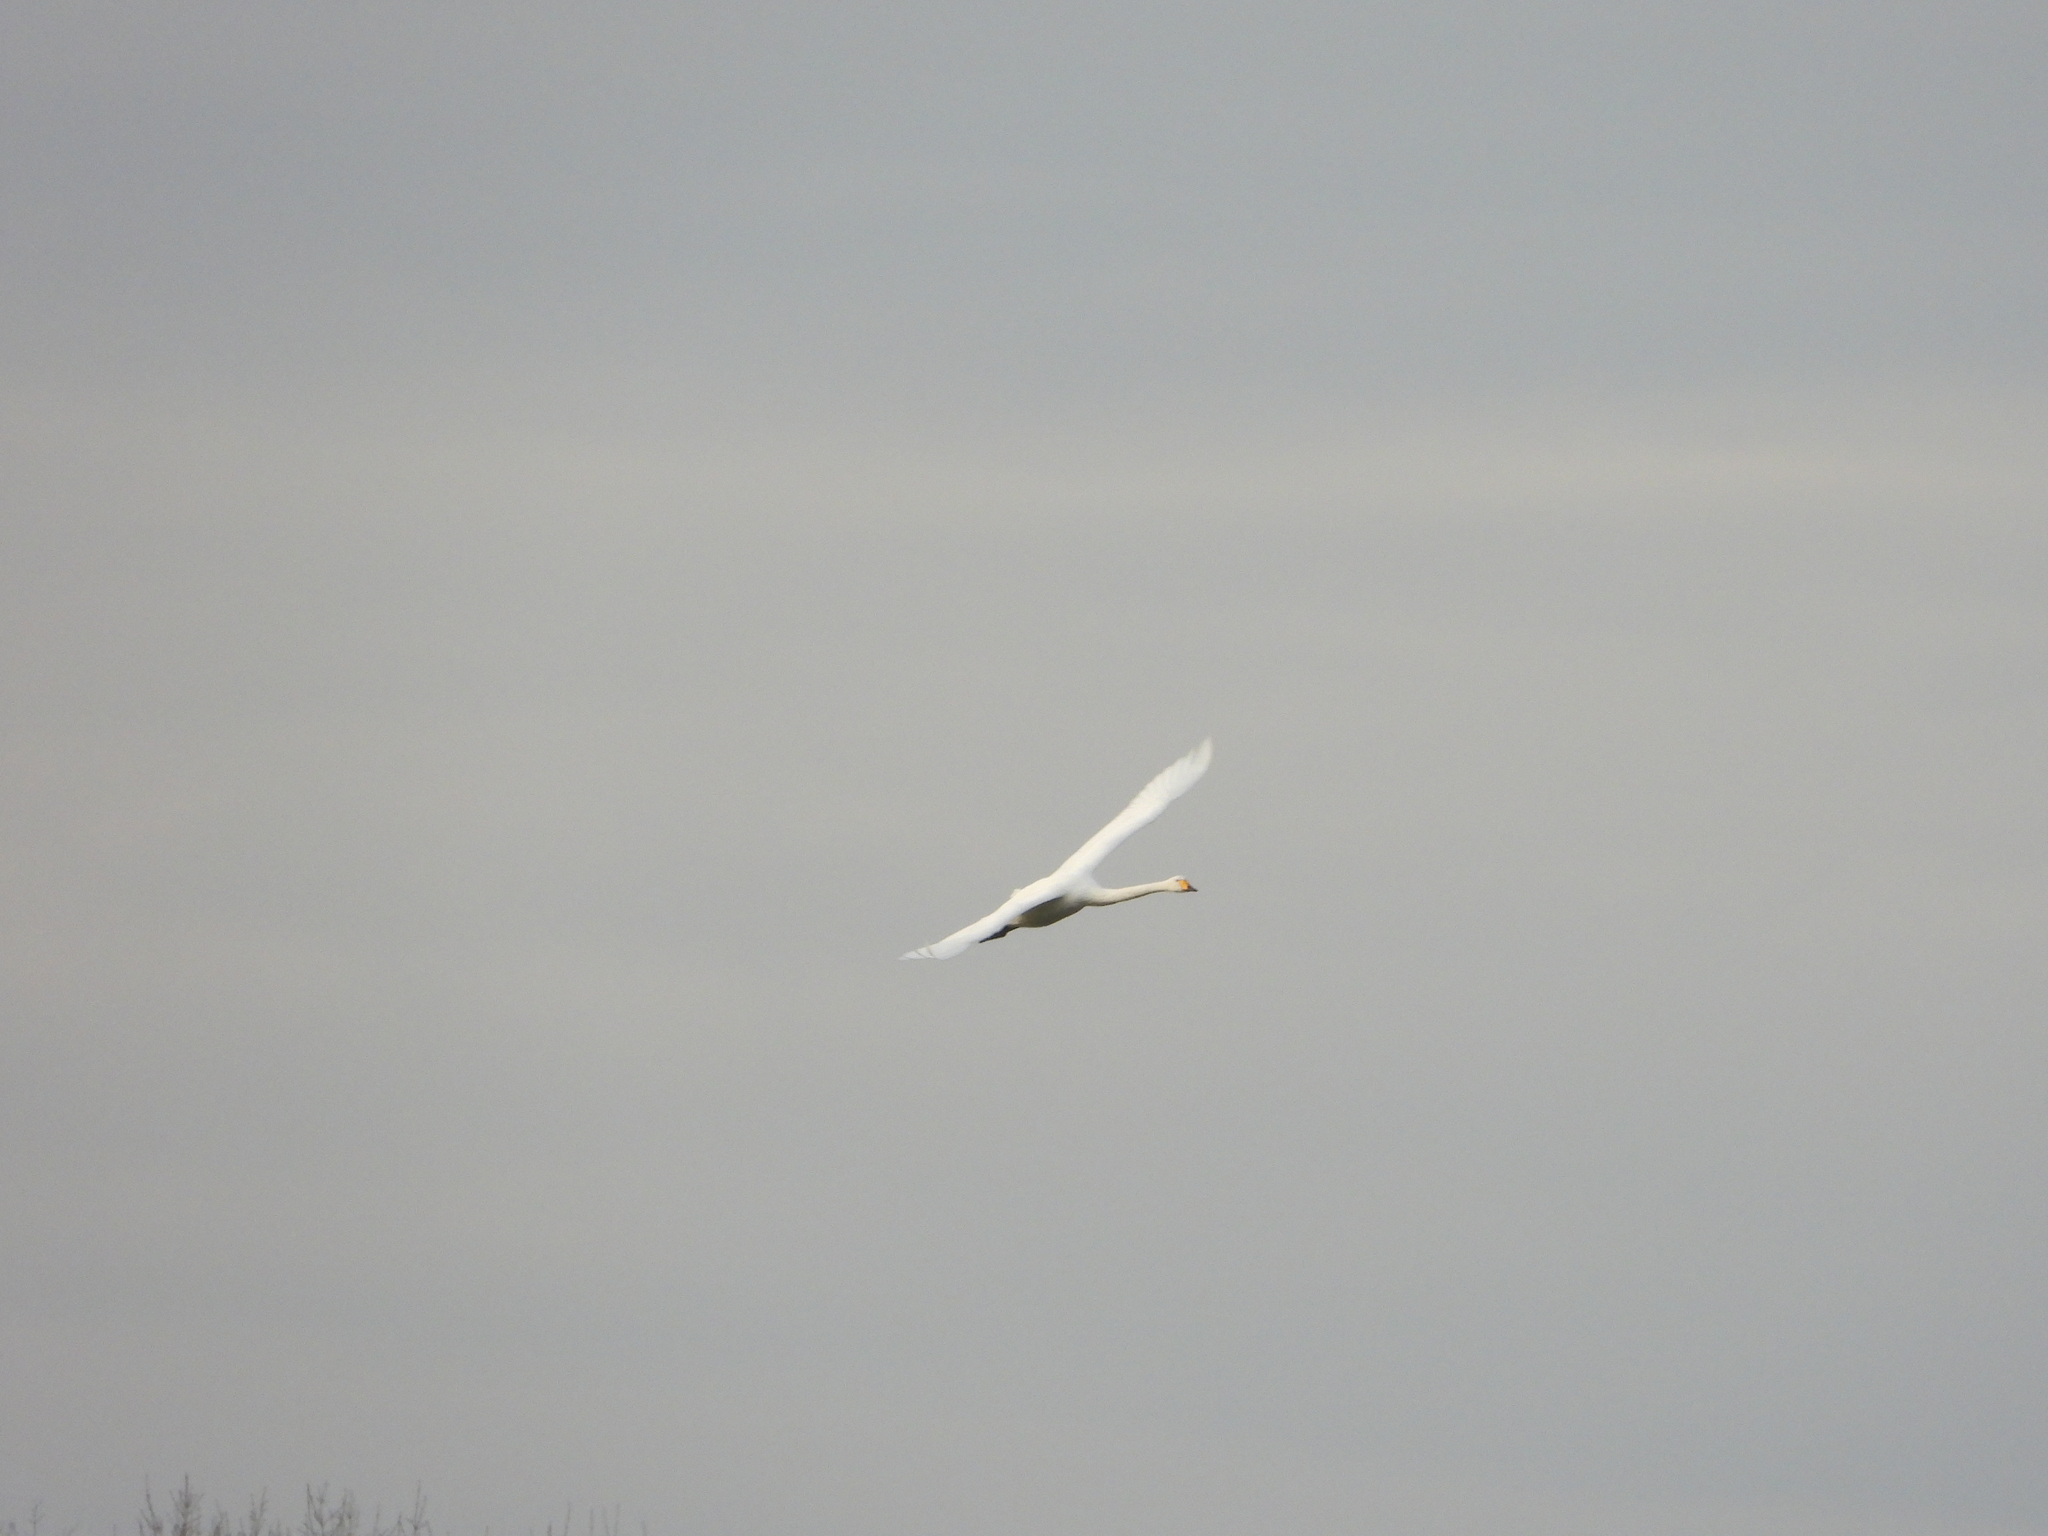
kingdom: Animalia
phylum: Chordata
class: Aves
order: Anseriformes
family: Anatidae
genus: Cygnus
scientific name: Cygnus cygnus
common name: Whooper swan
